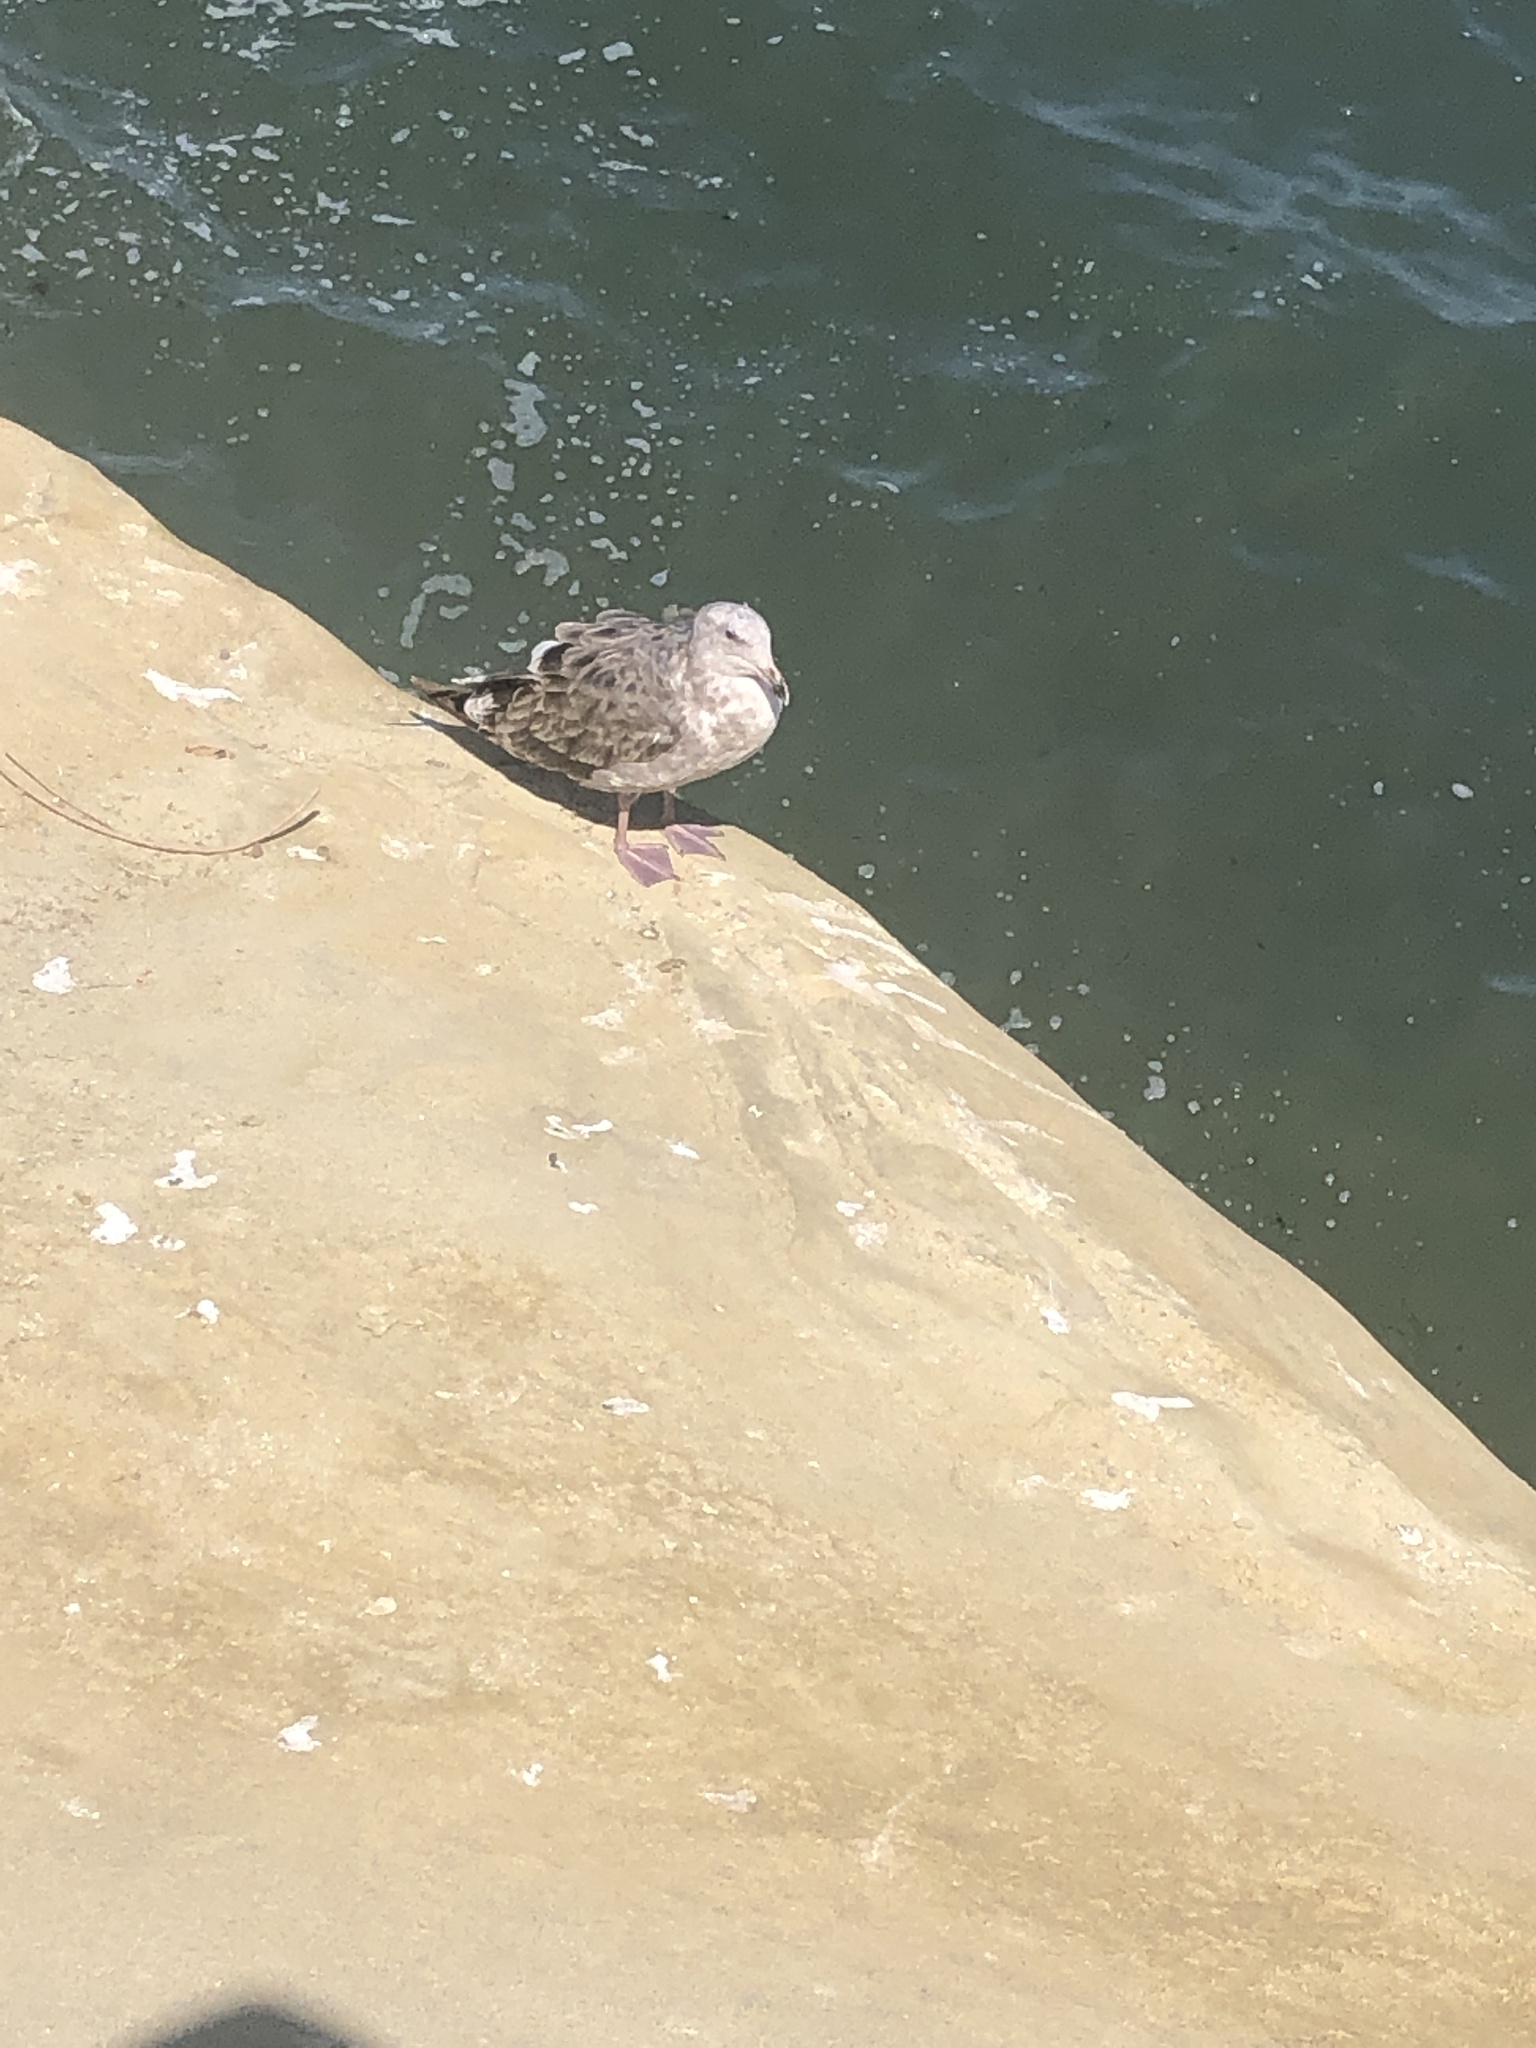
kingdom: Animalia
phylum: Chordata
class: Aves
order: Charadriiformes
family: Laridae
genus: Larus
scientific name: Larus occidentalis
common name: Western gull
